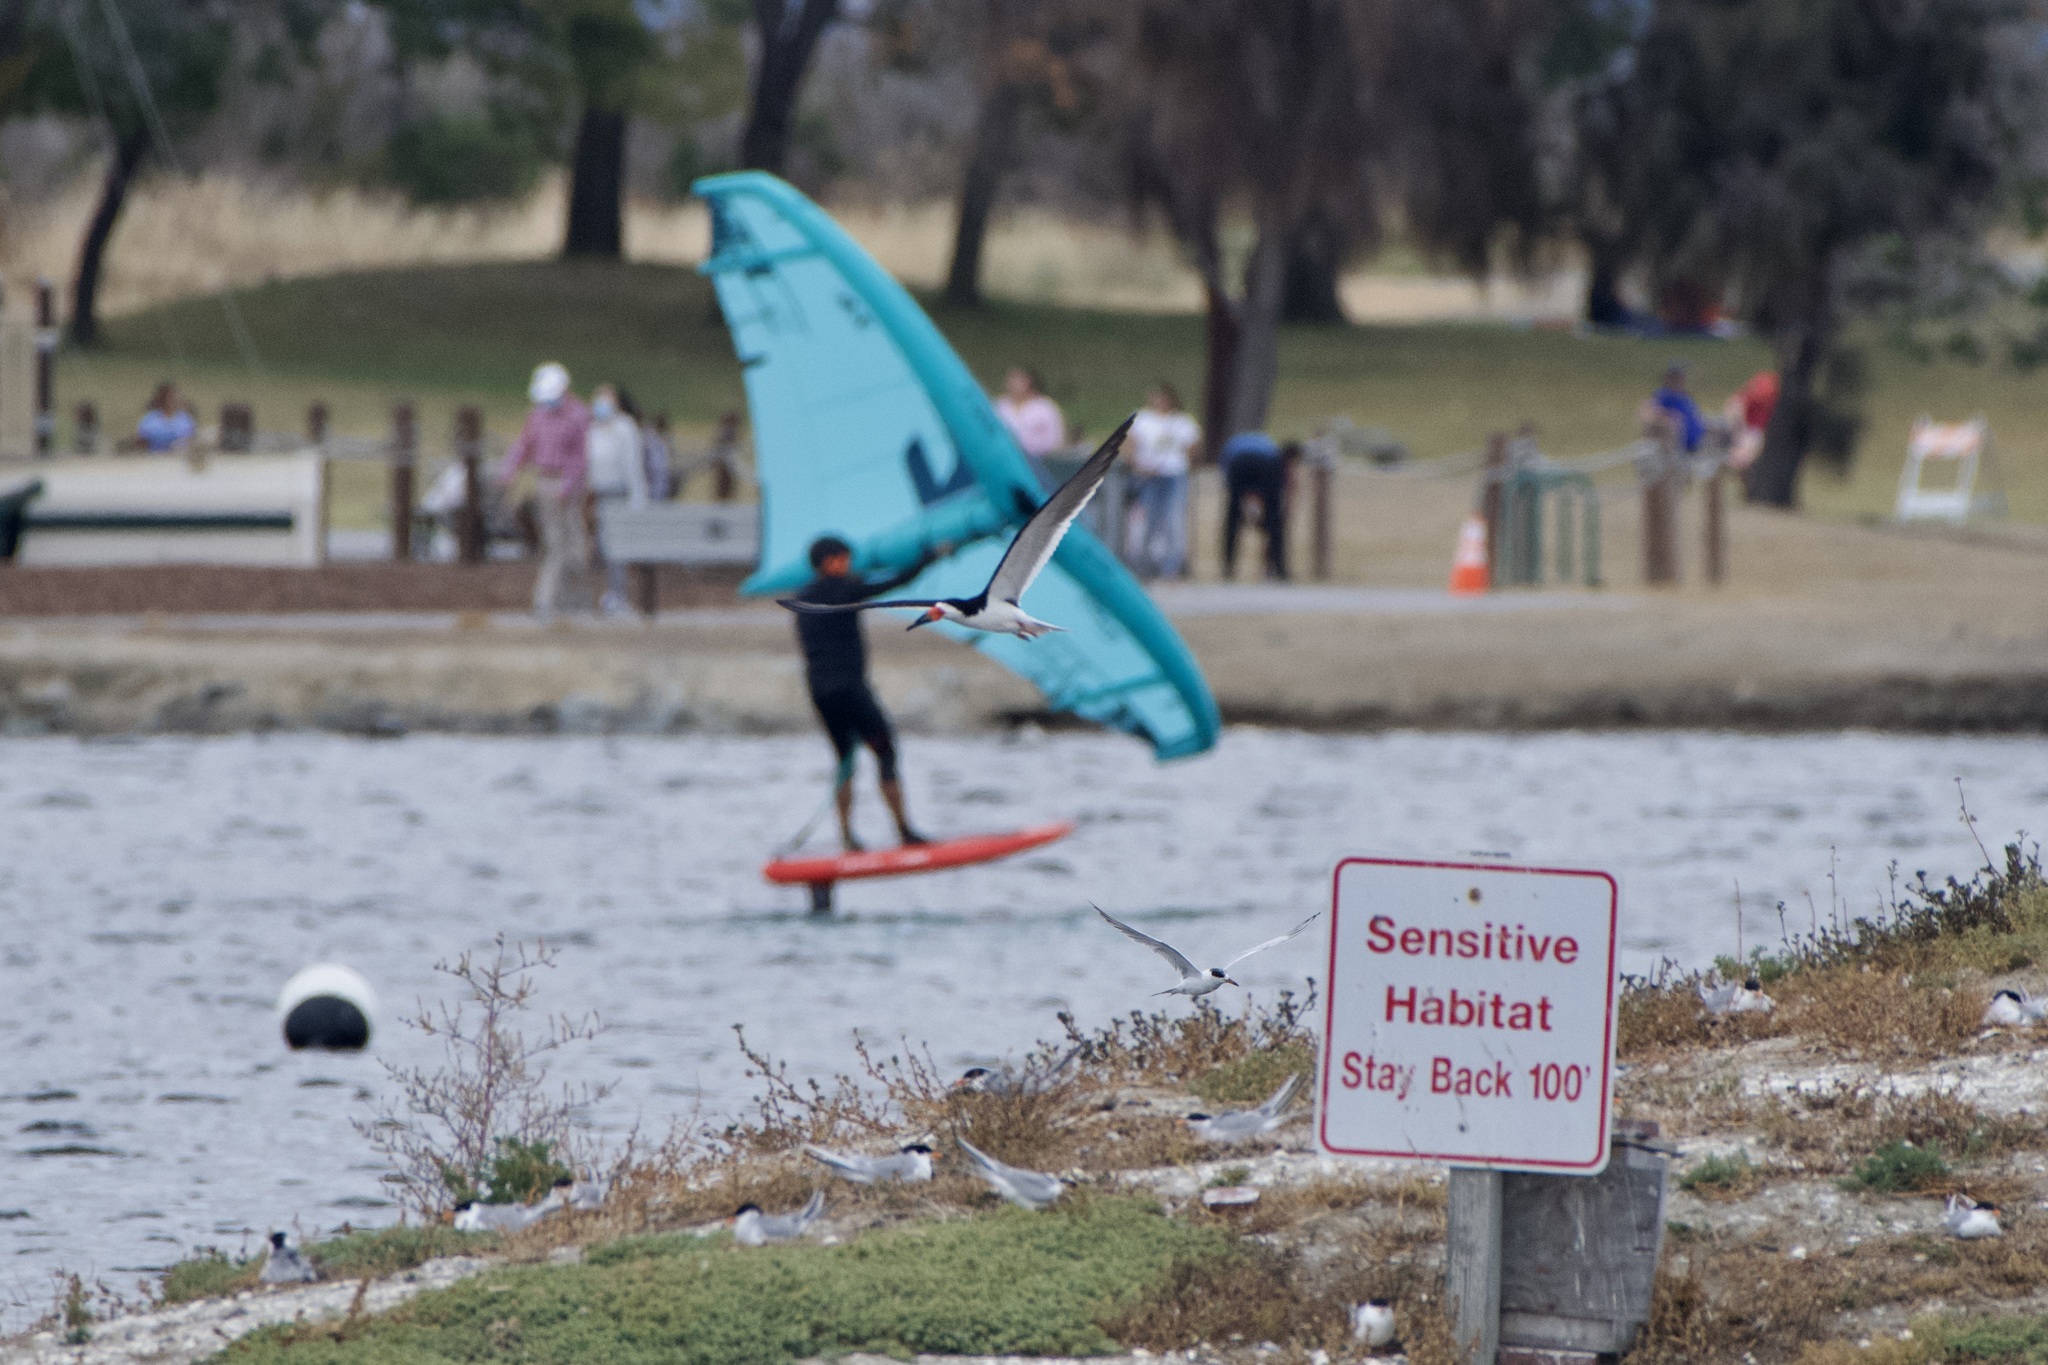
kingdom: Animalia
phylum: Chordata
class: Aves
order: Charadriiformes
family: Laridae
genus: Rynchops
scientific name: Rynchops niger
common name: Black skimmer
